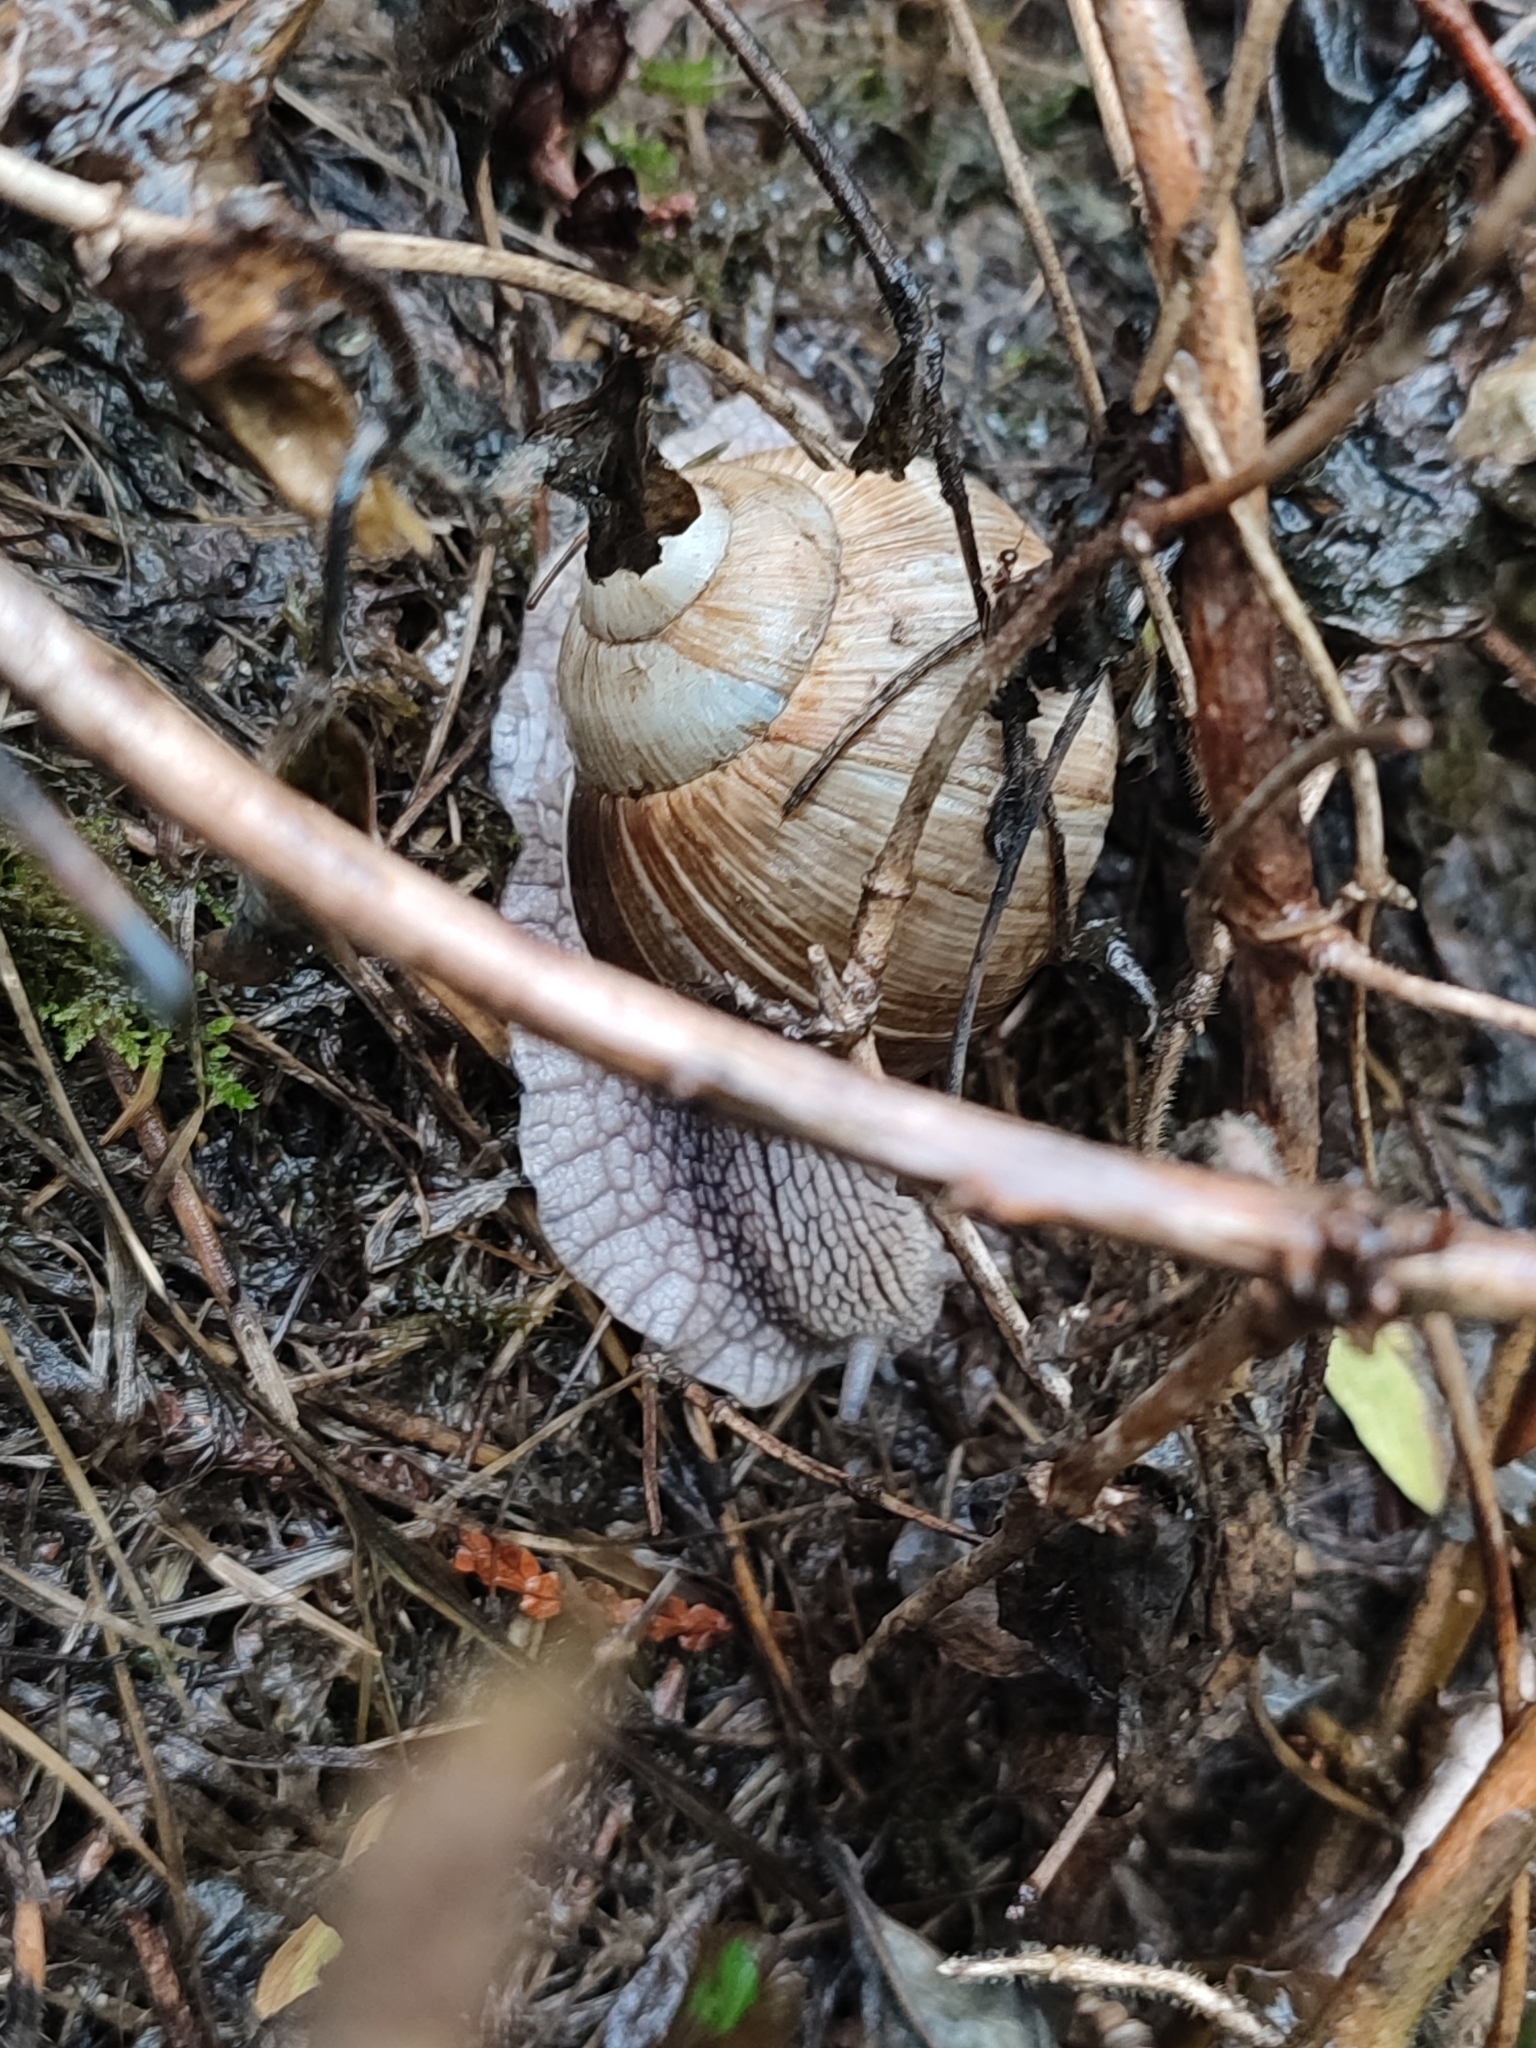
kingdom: Animalia
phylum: Mollusca
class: Gastropoda
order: Stylommatophora
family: Helicidae
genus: Helix
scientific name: Helix pomatia
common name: Roman snail
